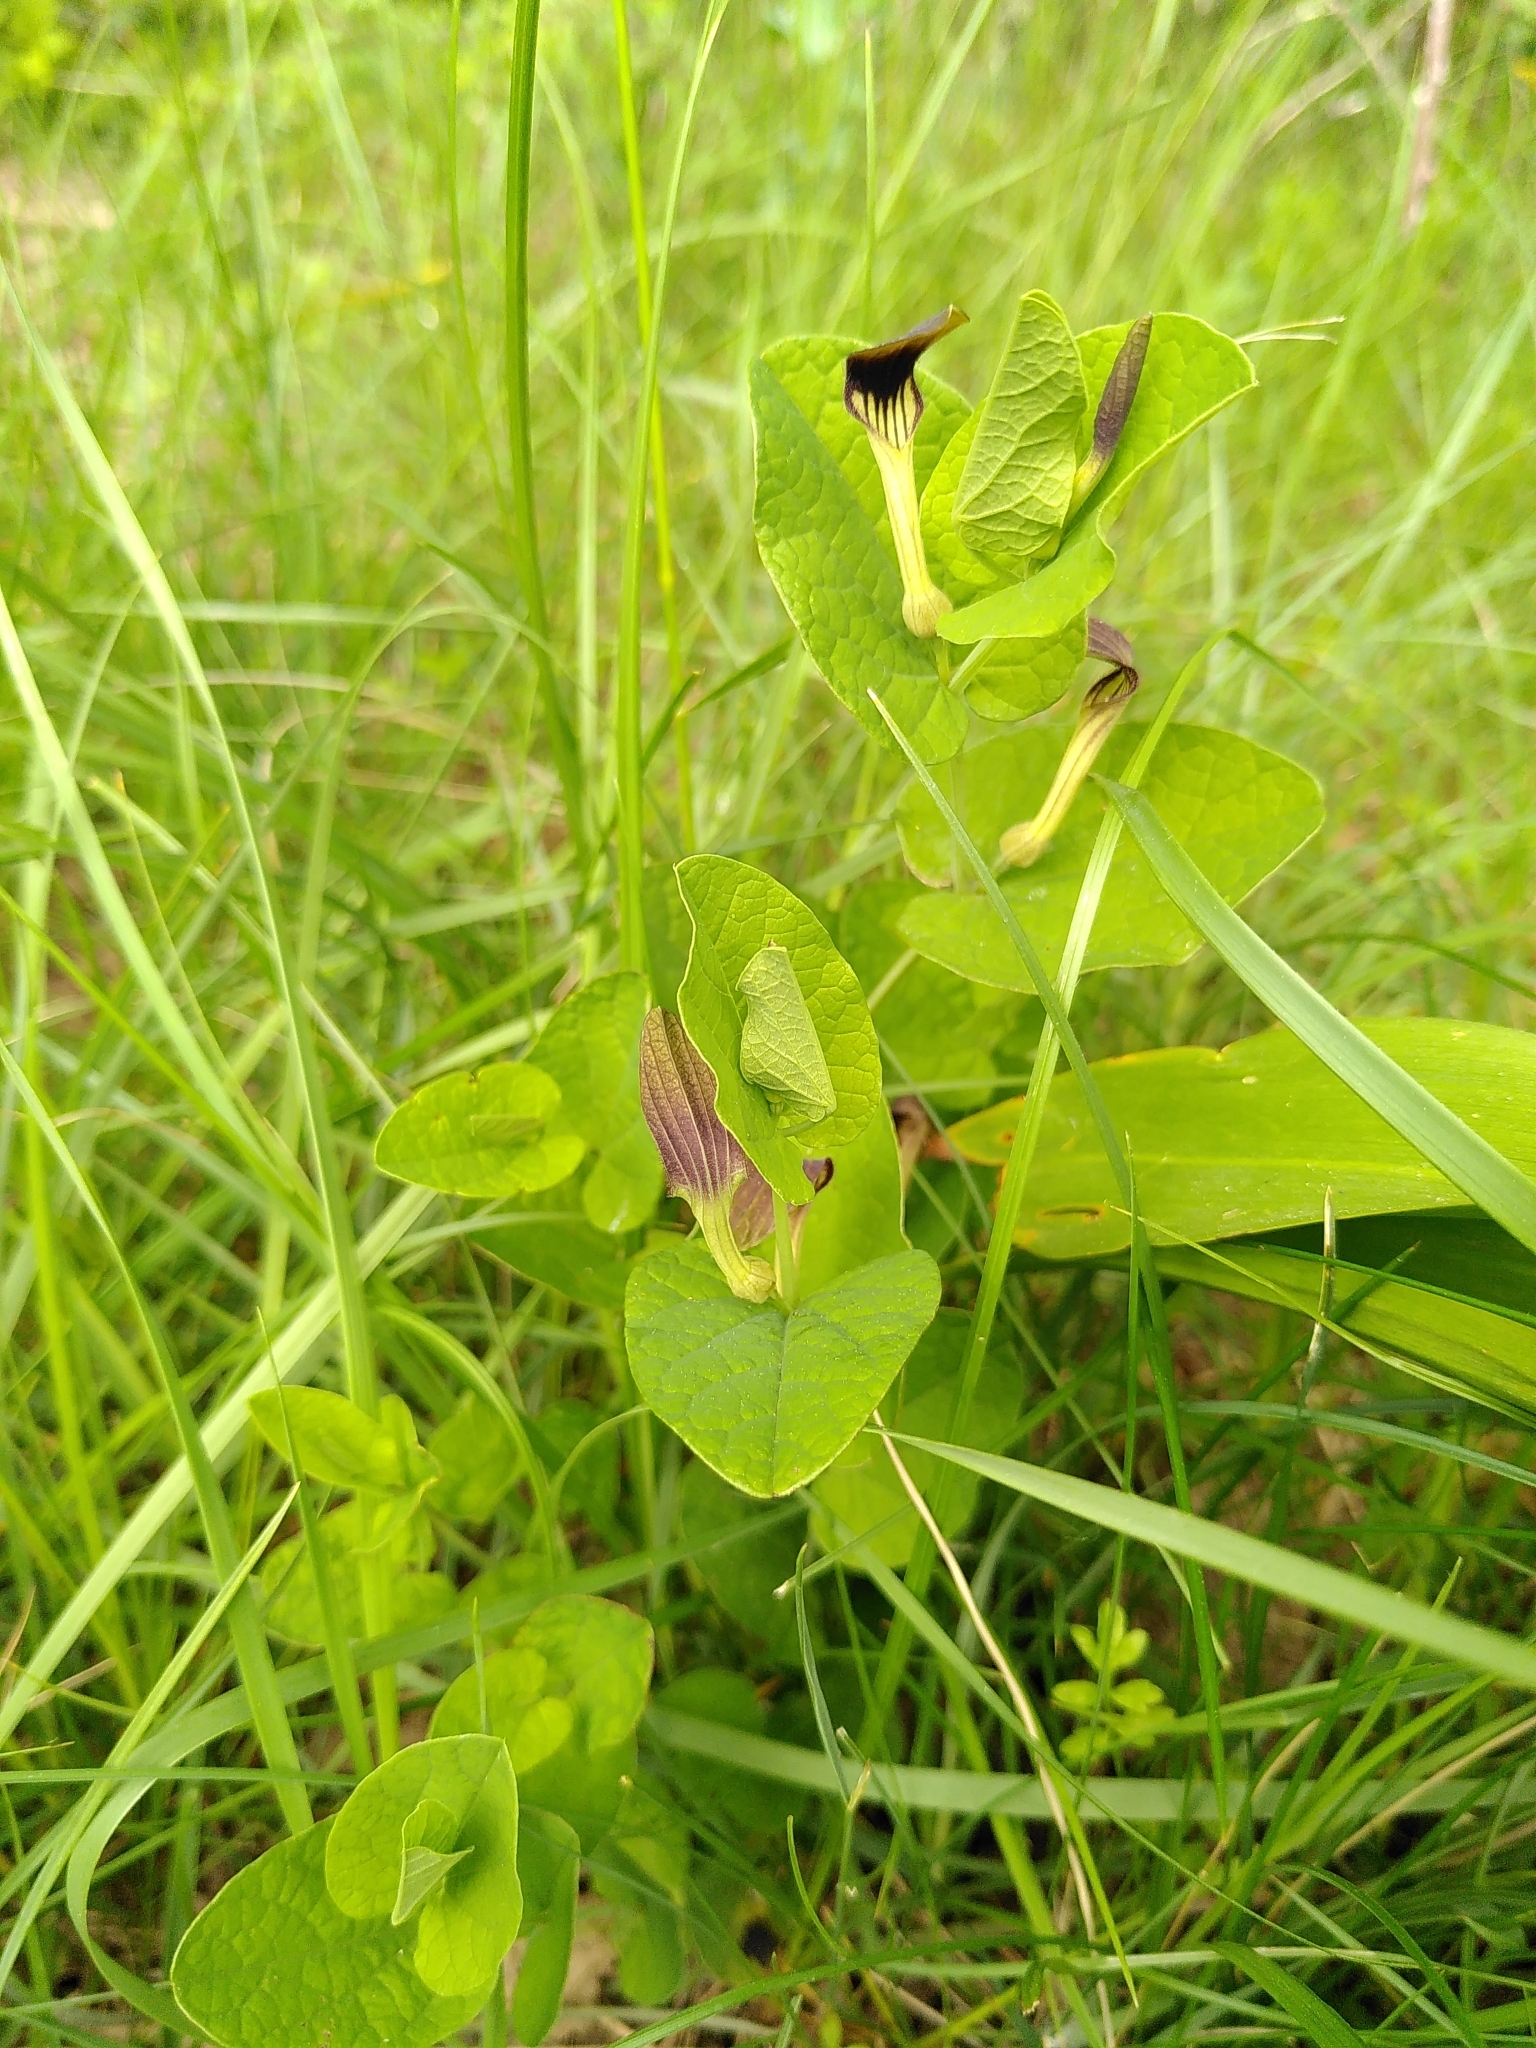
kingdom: Plantae
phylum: Tracheophyta
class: Magnoliopsida
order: Piperales
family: Aristolochiaceae
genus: Aristolochia
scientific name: Aristolochia rotunda
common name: Smearwort
